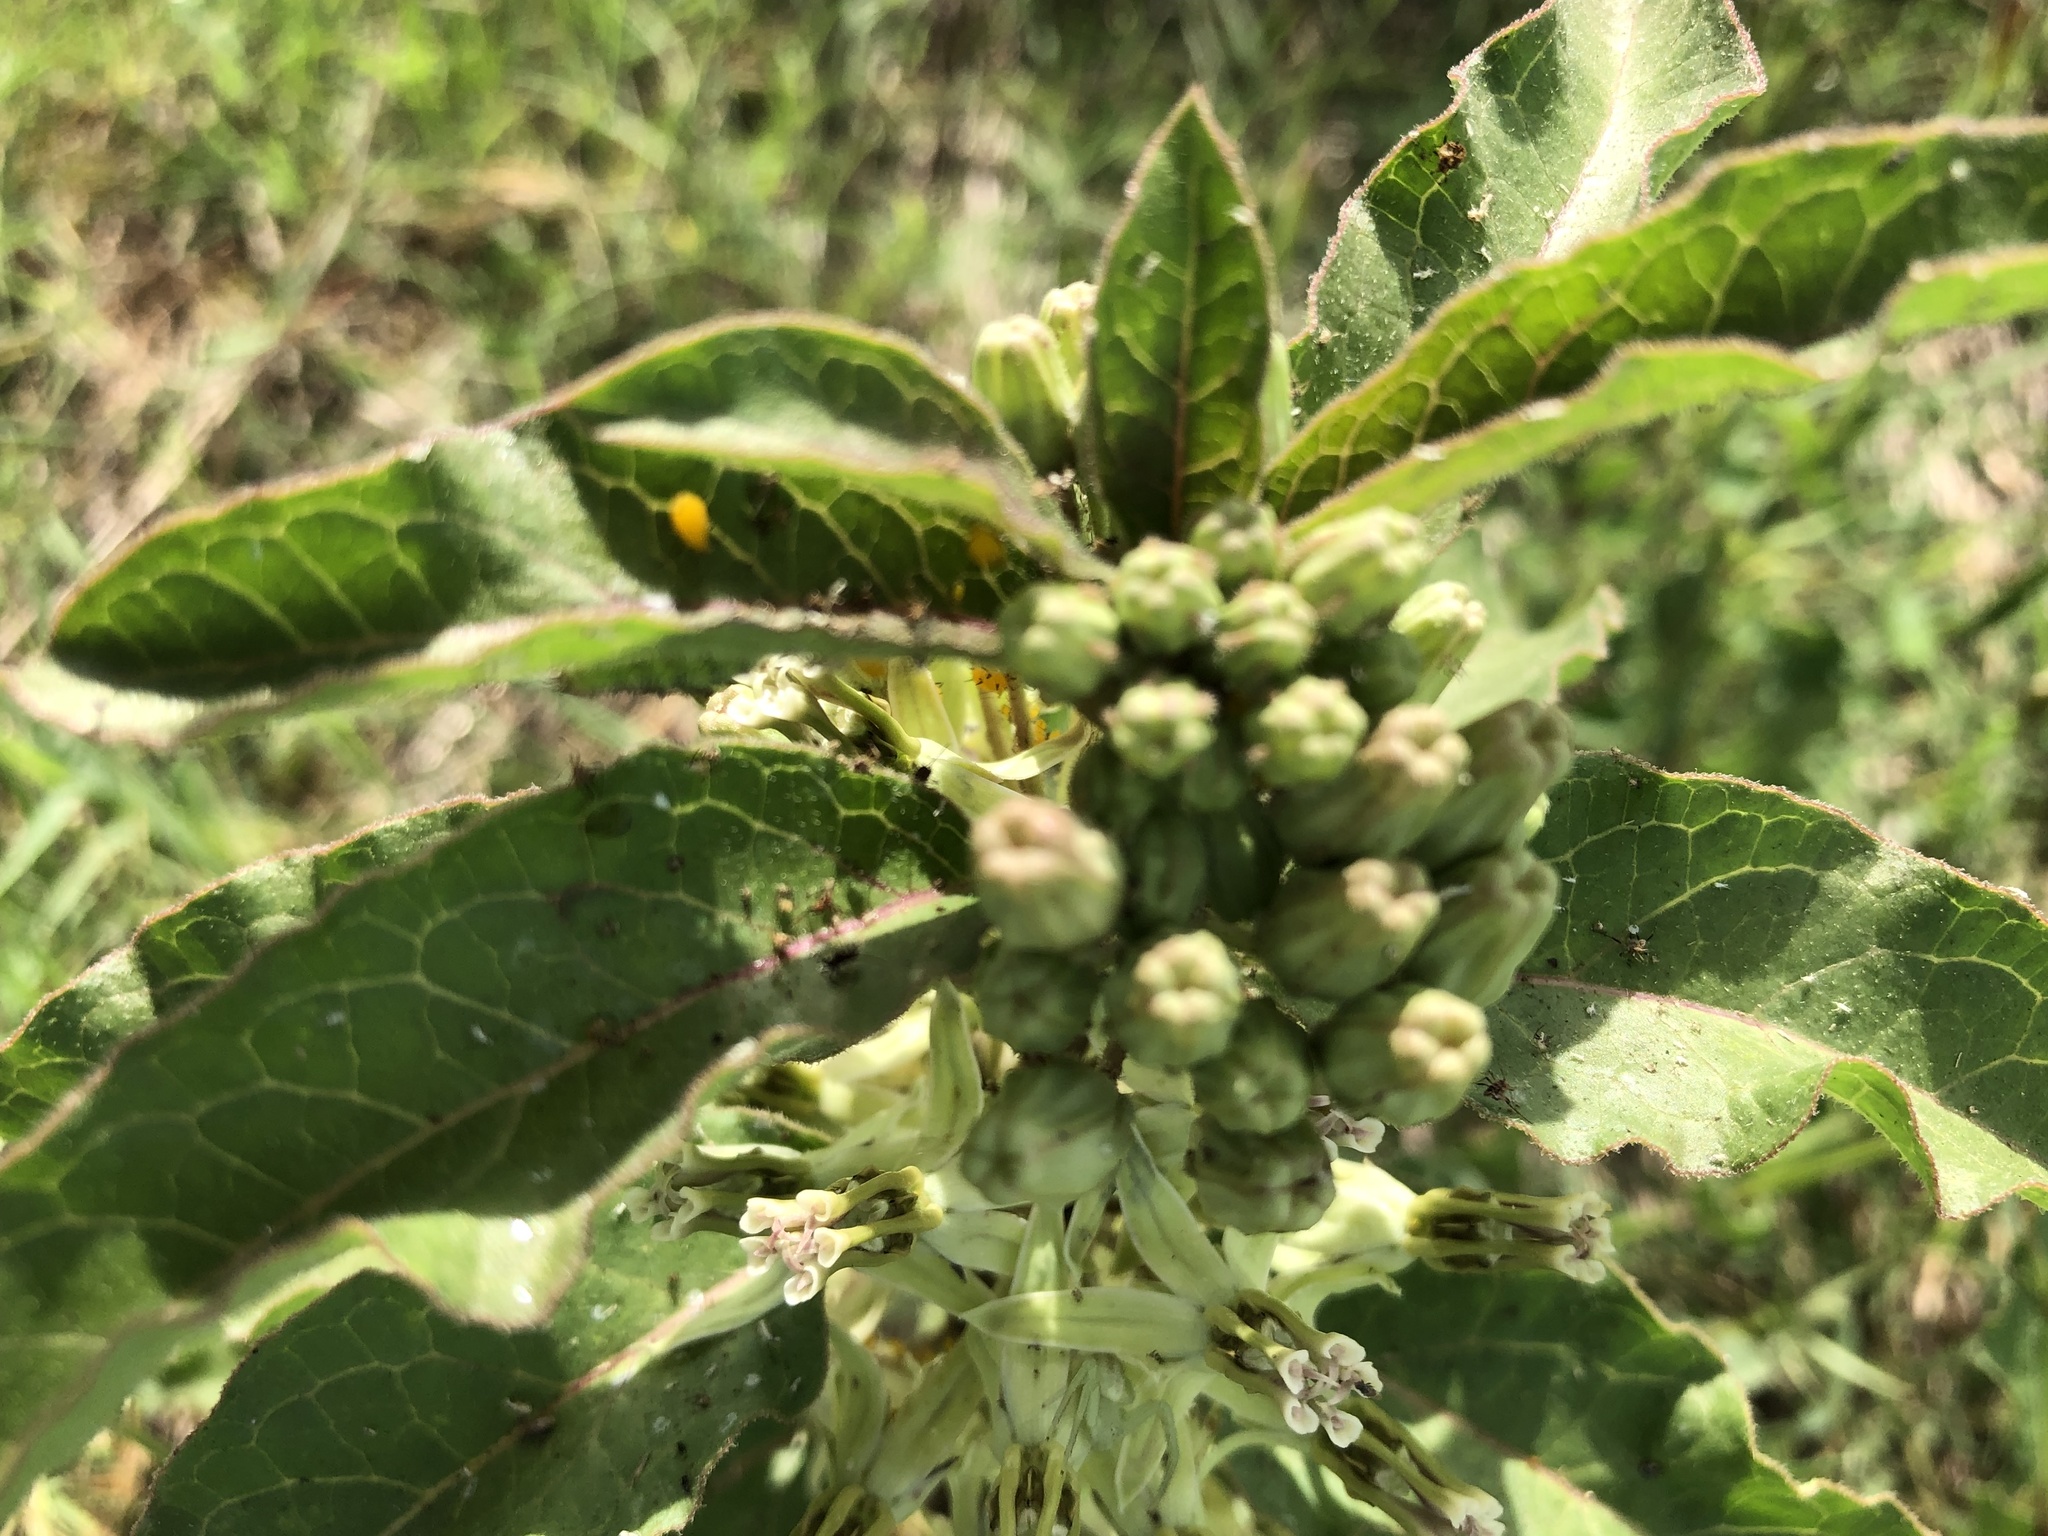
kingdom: Plantae
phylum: Tracheophyta
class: Magnoliopsida
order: Gentianales
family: Apocynaceae
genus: Asclepias
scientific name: Asclepias oenotheroides
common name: Zizotes milkweed
